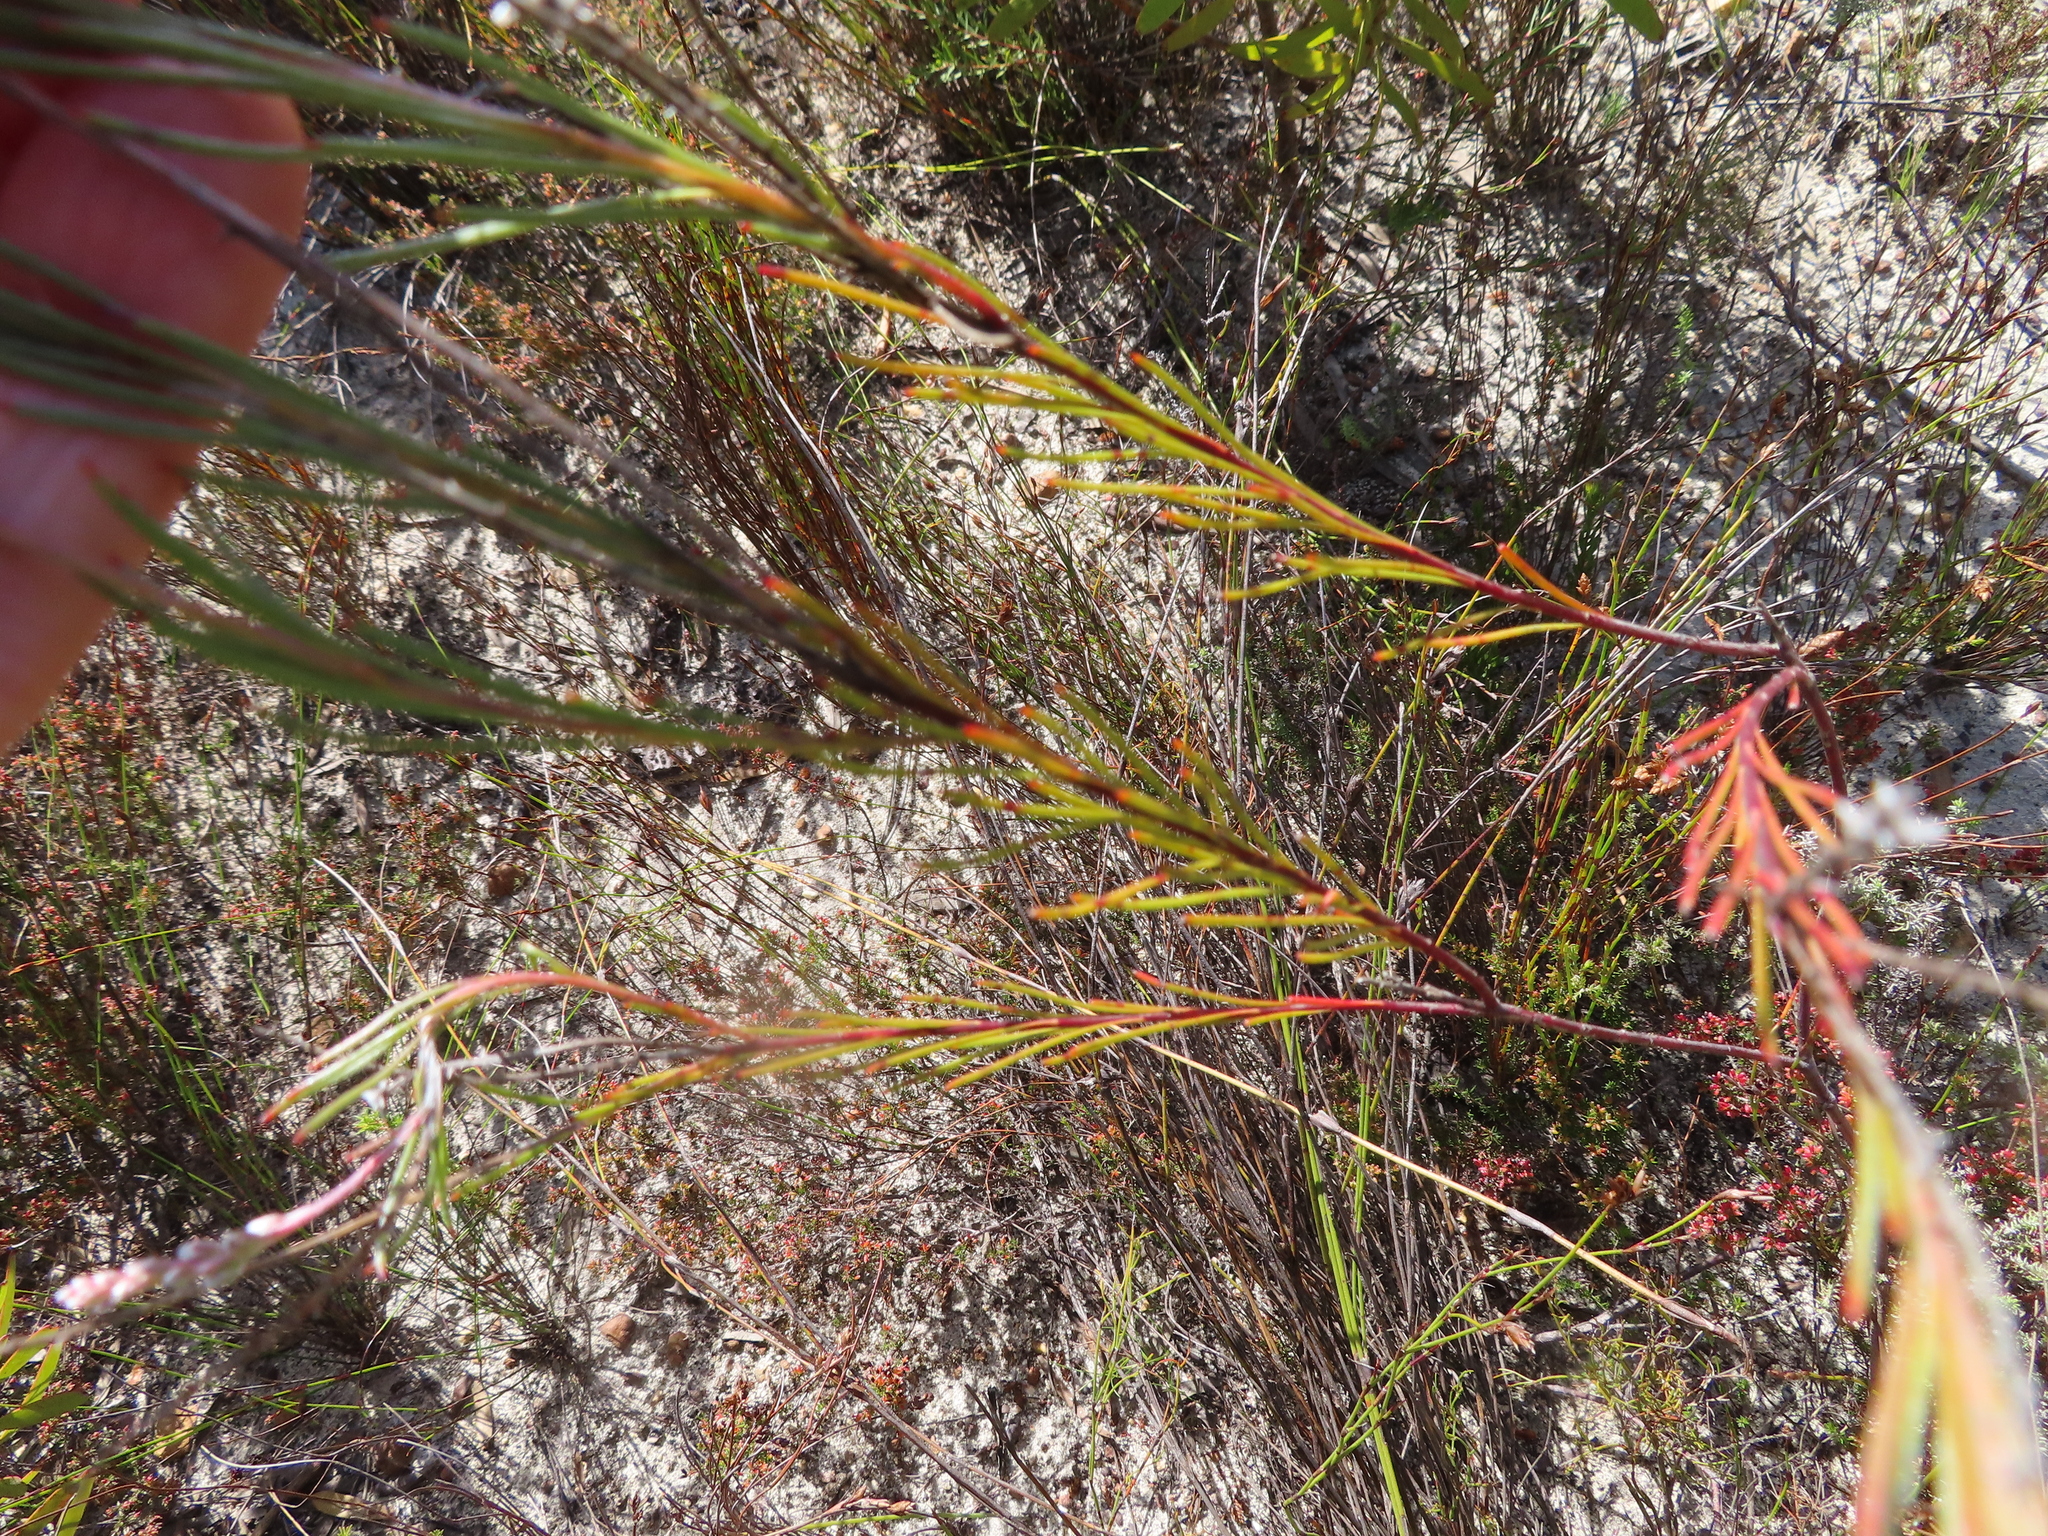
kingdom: Plantae
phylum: Tracheophyta
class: Magnoliopsida
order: Proteales
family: Proteaceae
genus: Spatalla
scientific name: Spatalla racemosa
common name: Lax-stalked spoon
